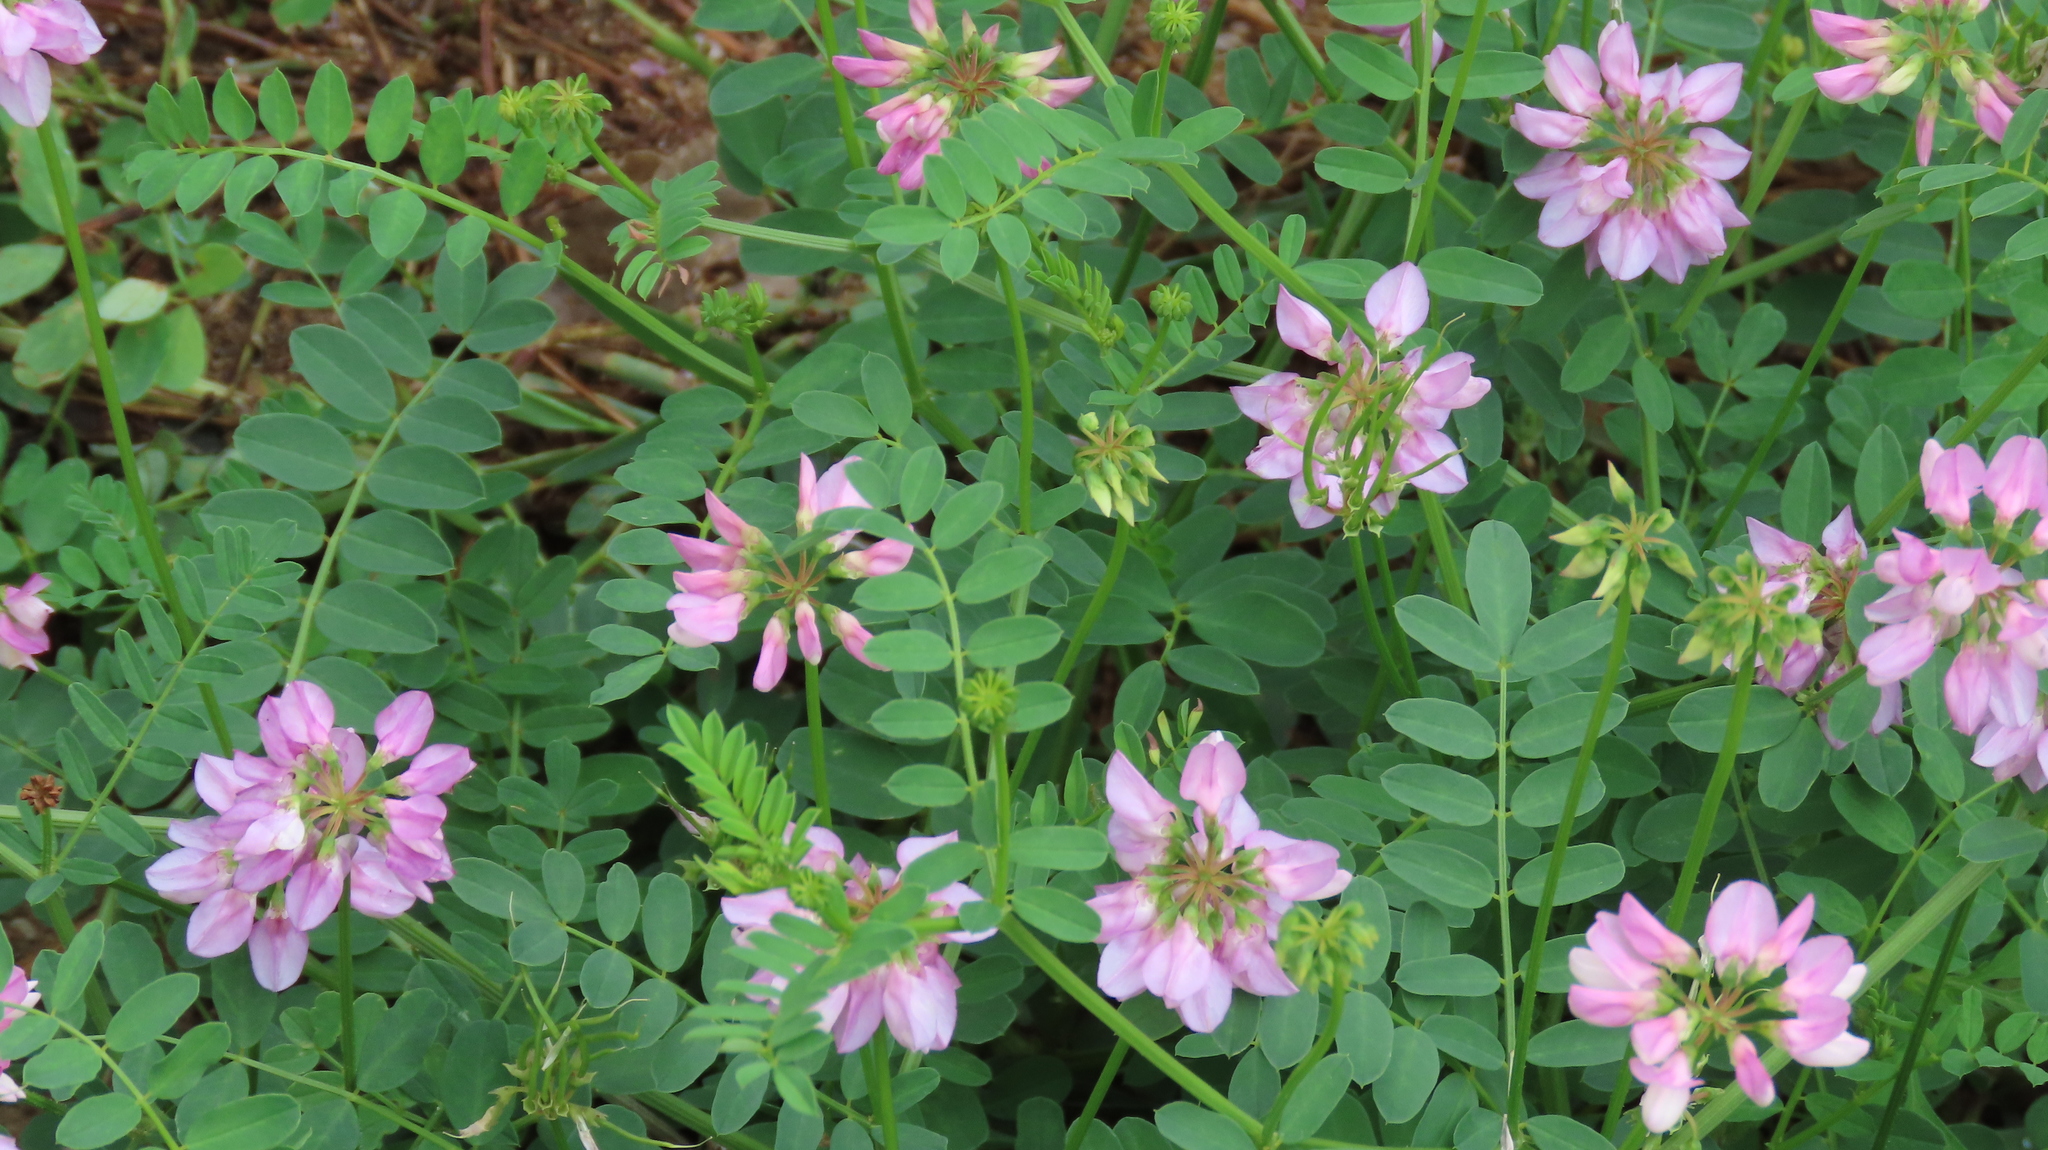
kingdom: Plantae
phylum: Tracheophyta
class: Magnoliopsida
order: Fabales
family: Fabaceae
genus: Coronilla
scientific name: Coronilla varia
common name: Crownvetch
